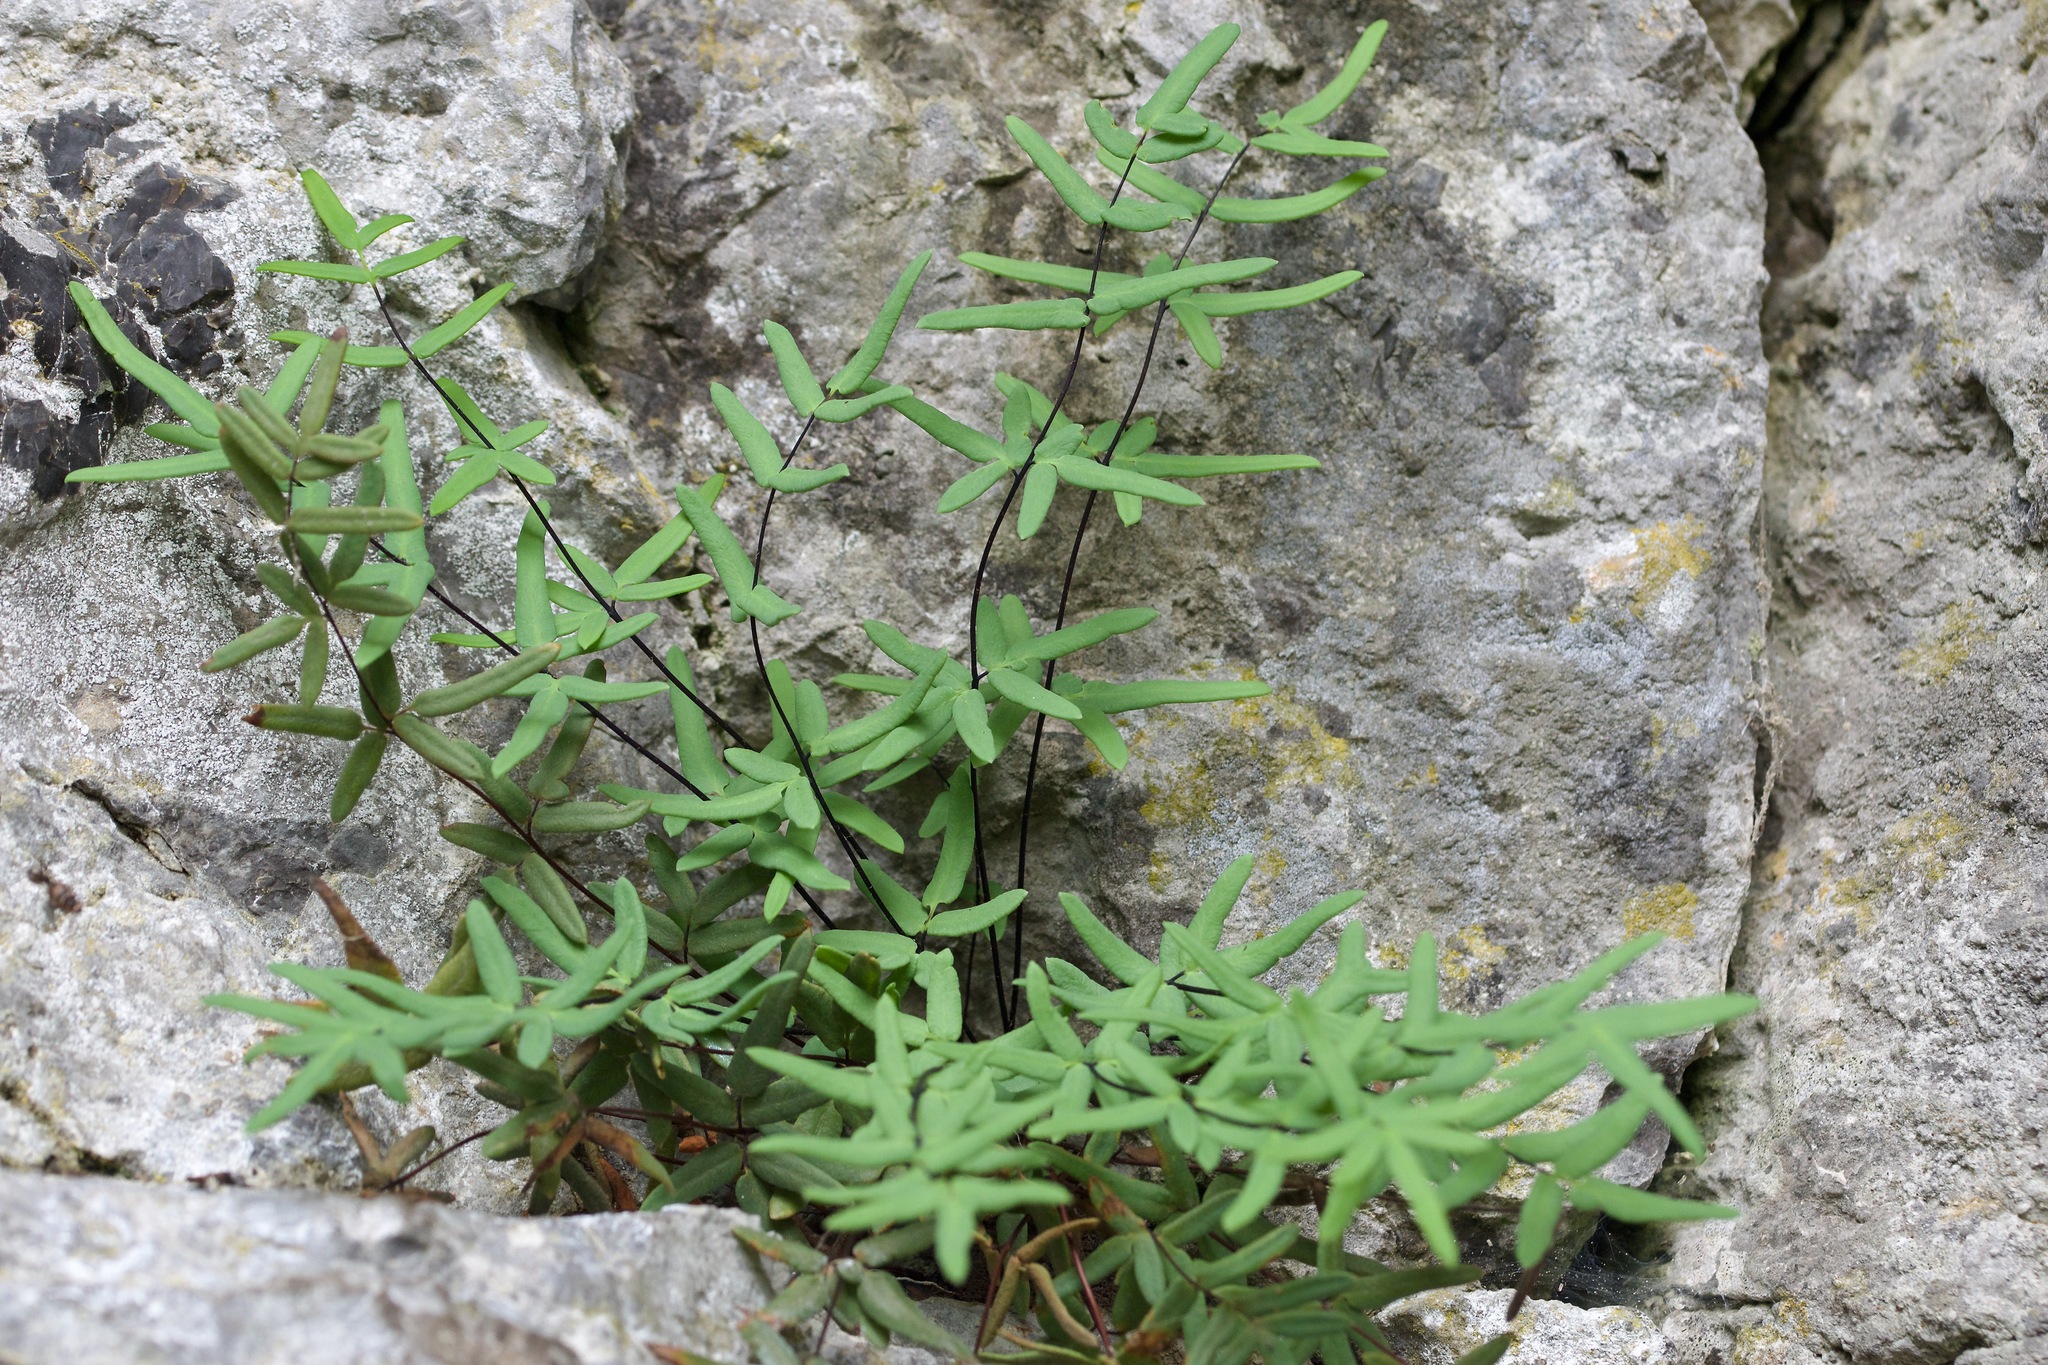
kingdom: Plantae
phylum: Tracheophyta
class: Polypodiopsida
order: Polypodiales
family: Pteridaceae
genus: Pellaea
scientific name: Pellaea glabella
